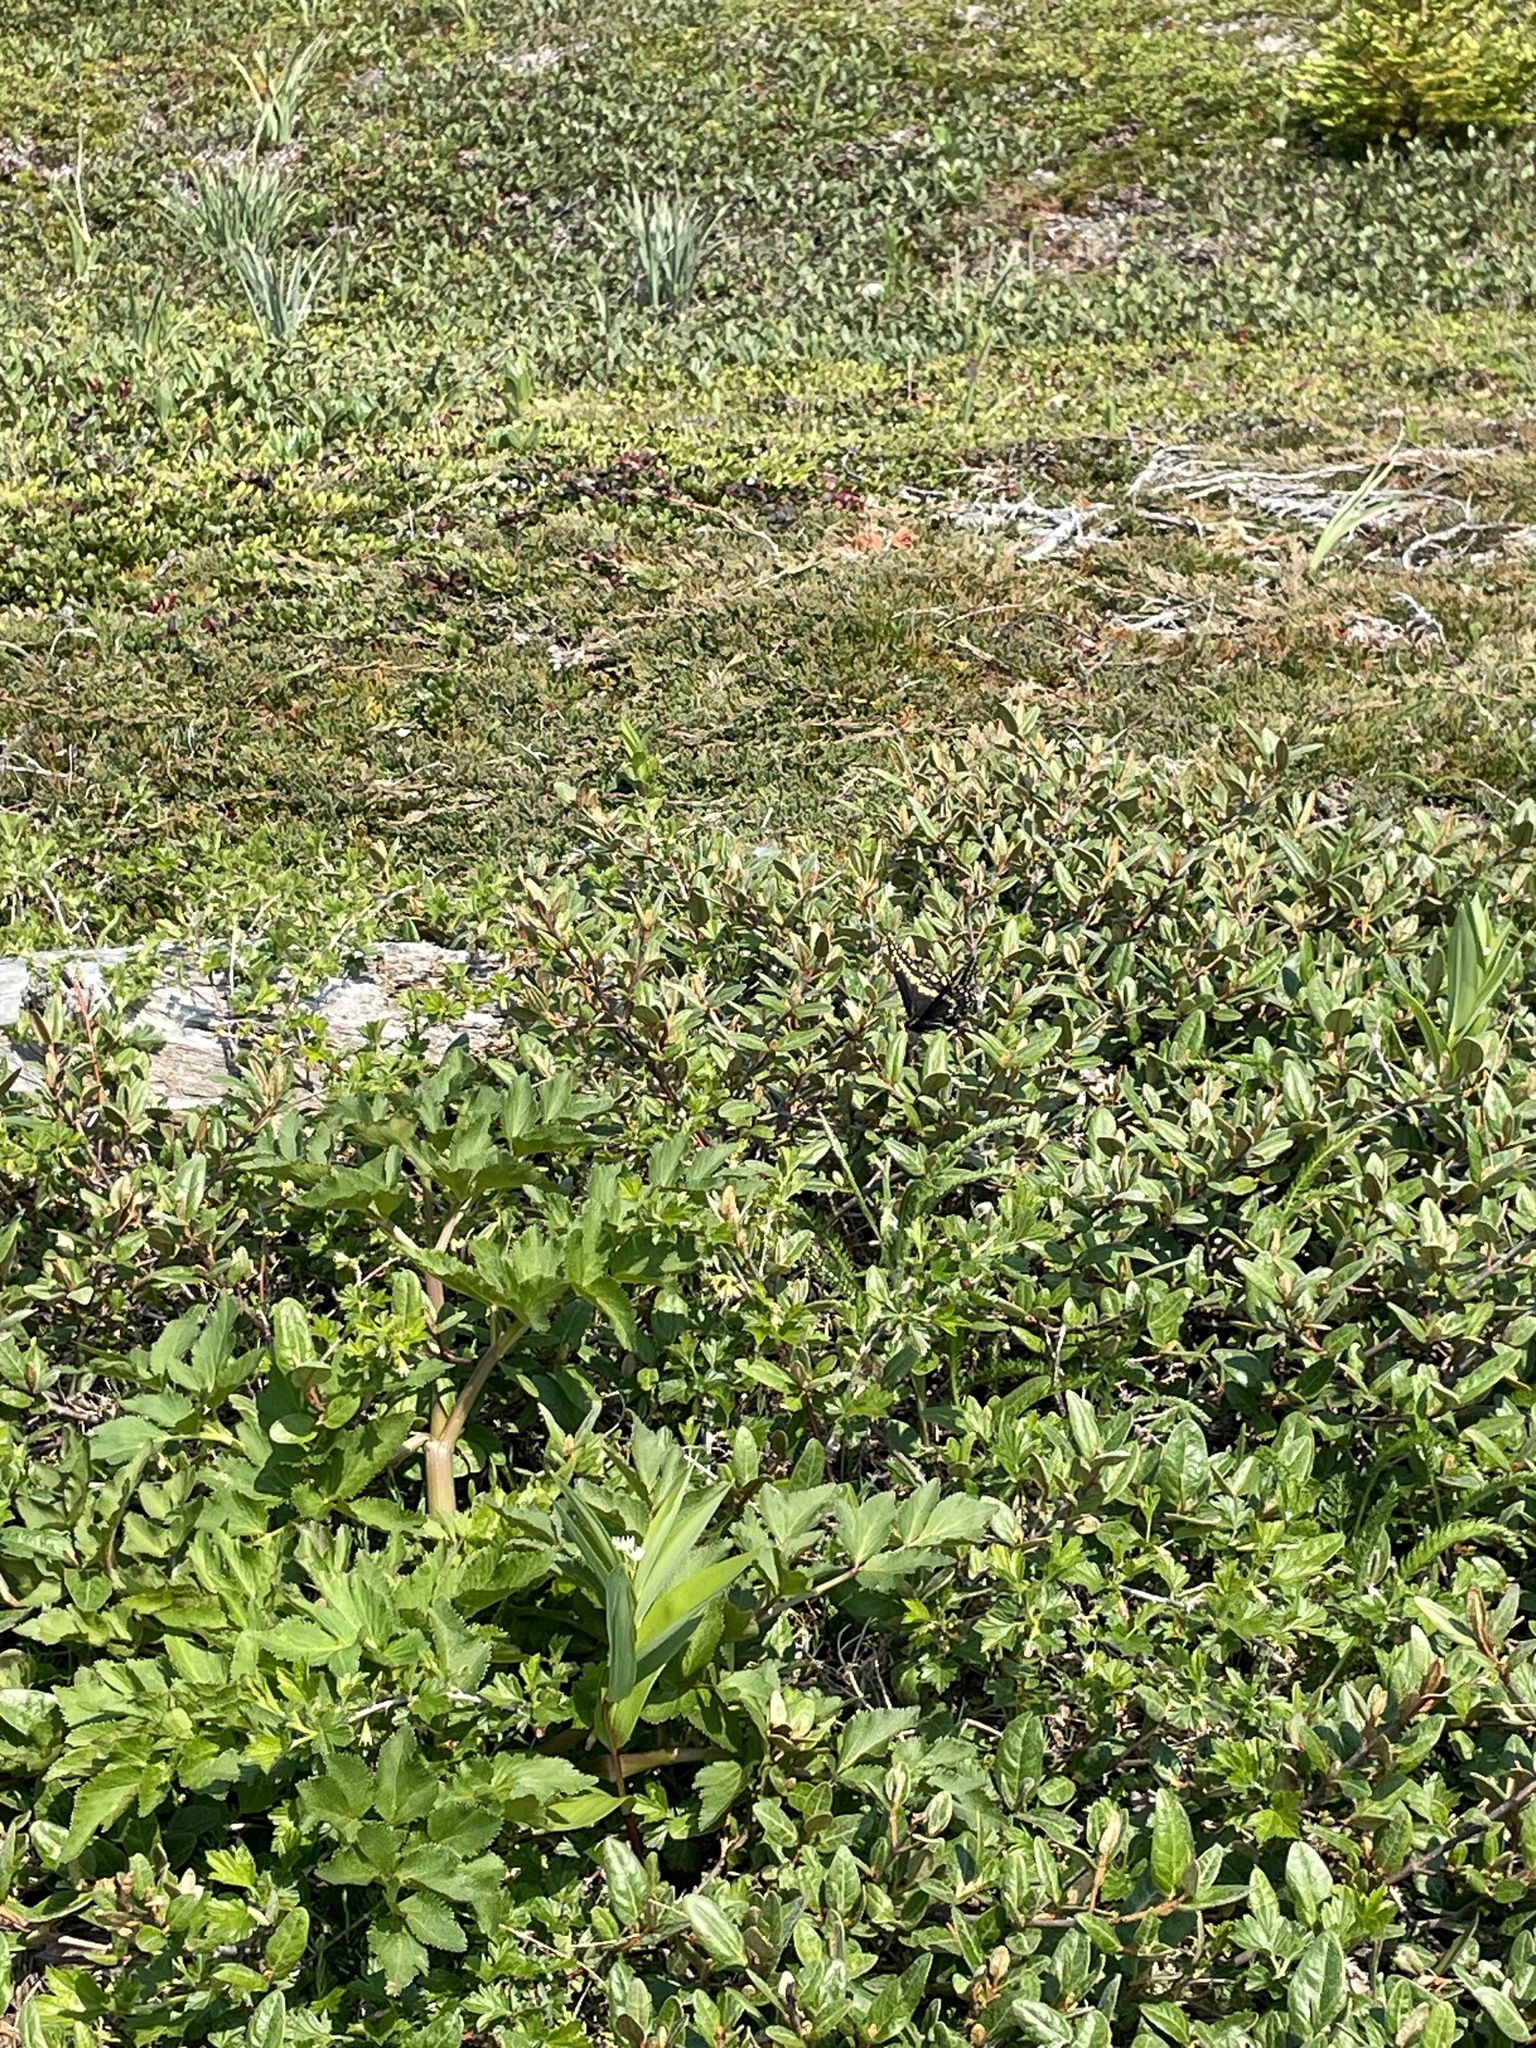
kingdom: Animalia
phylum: Arthropoda
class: Insecta
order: Lepidoptera
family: Papilionidae
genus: Papilio
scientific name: Papilio brevicauda
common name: Short tailed swallowtail
